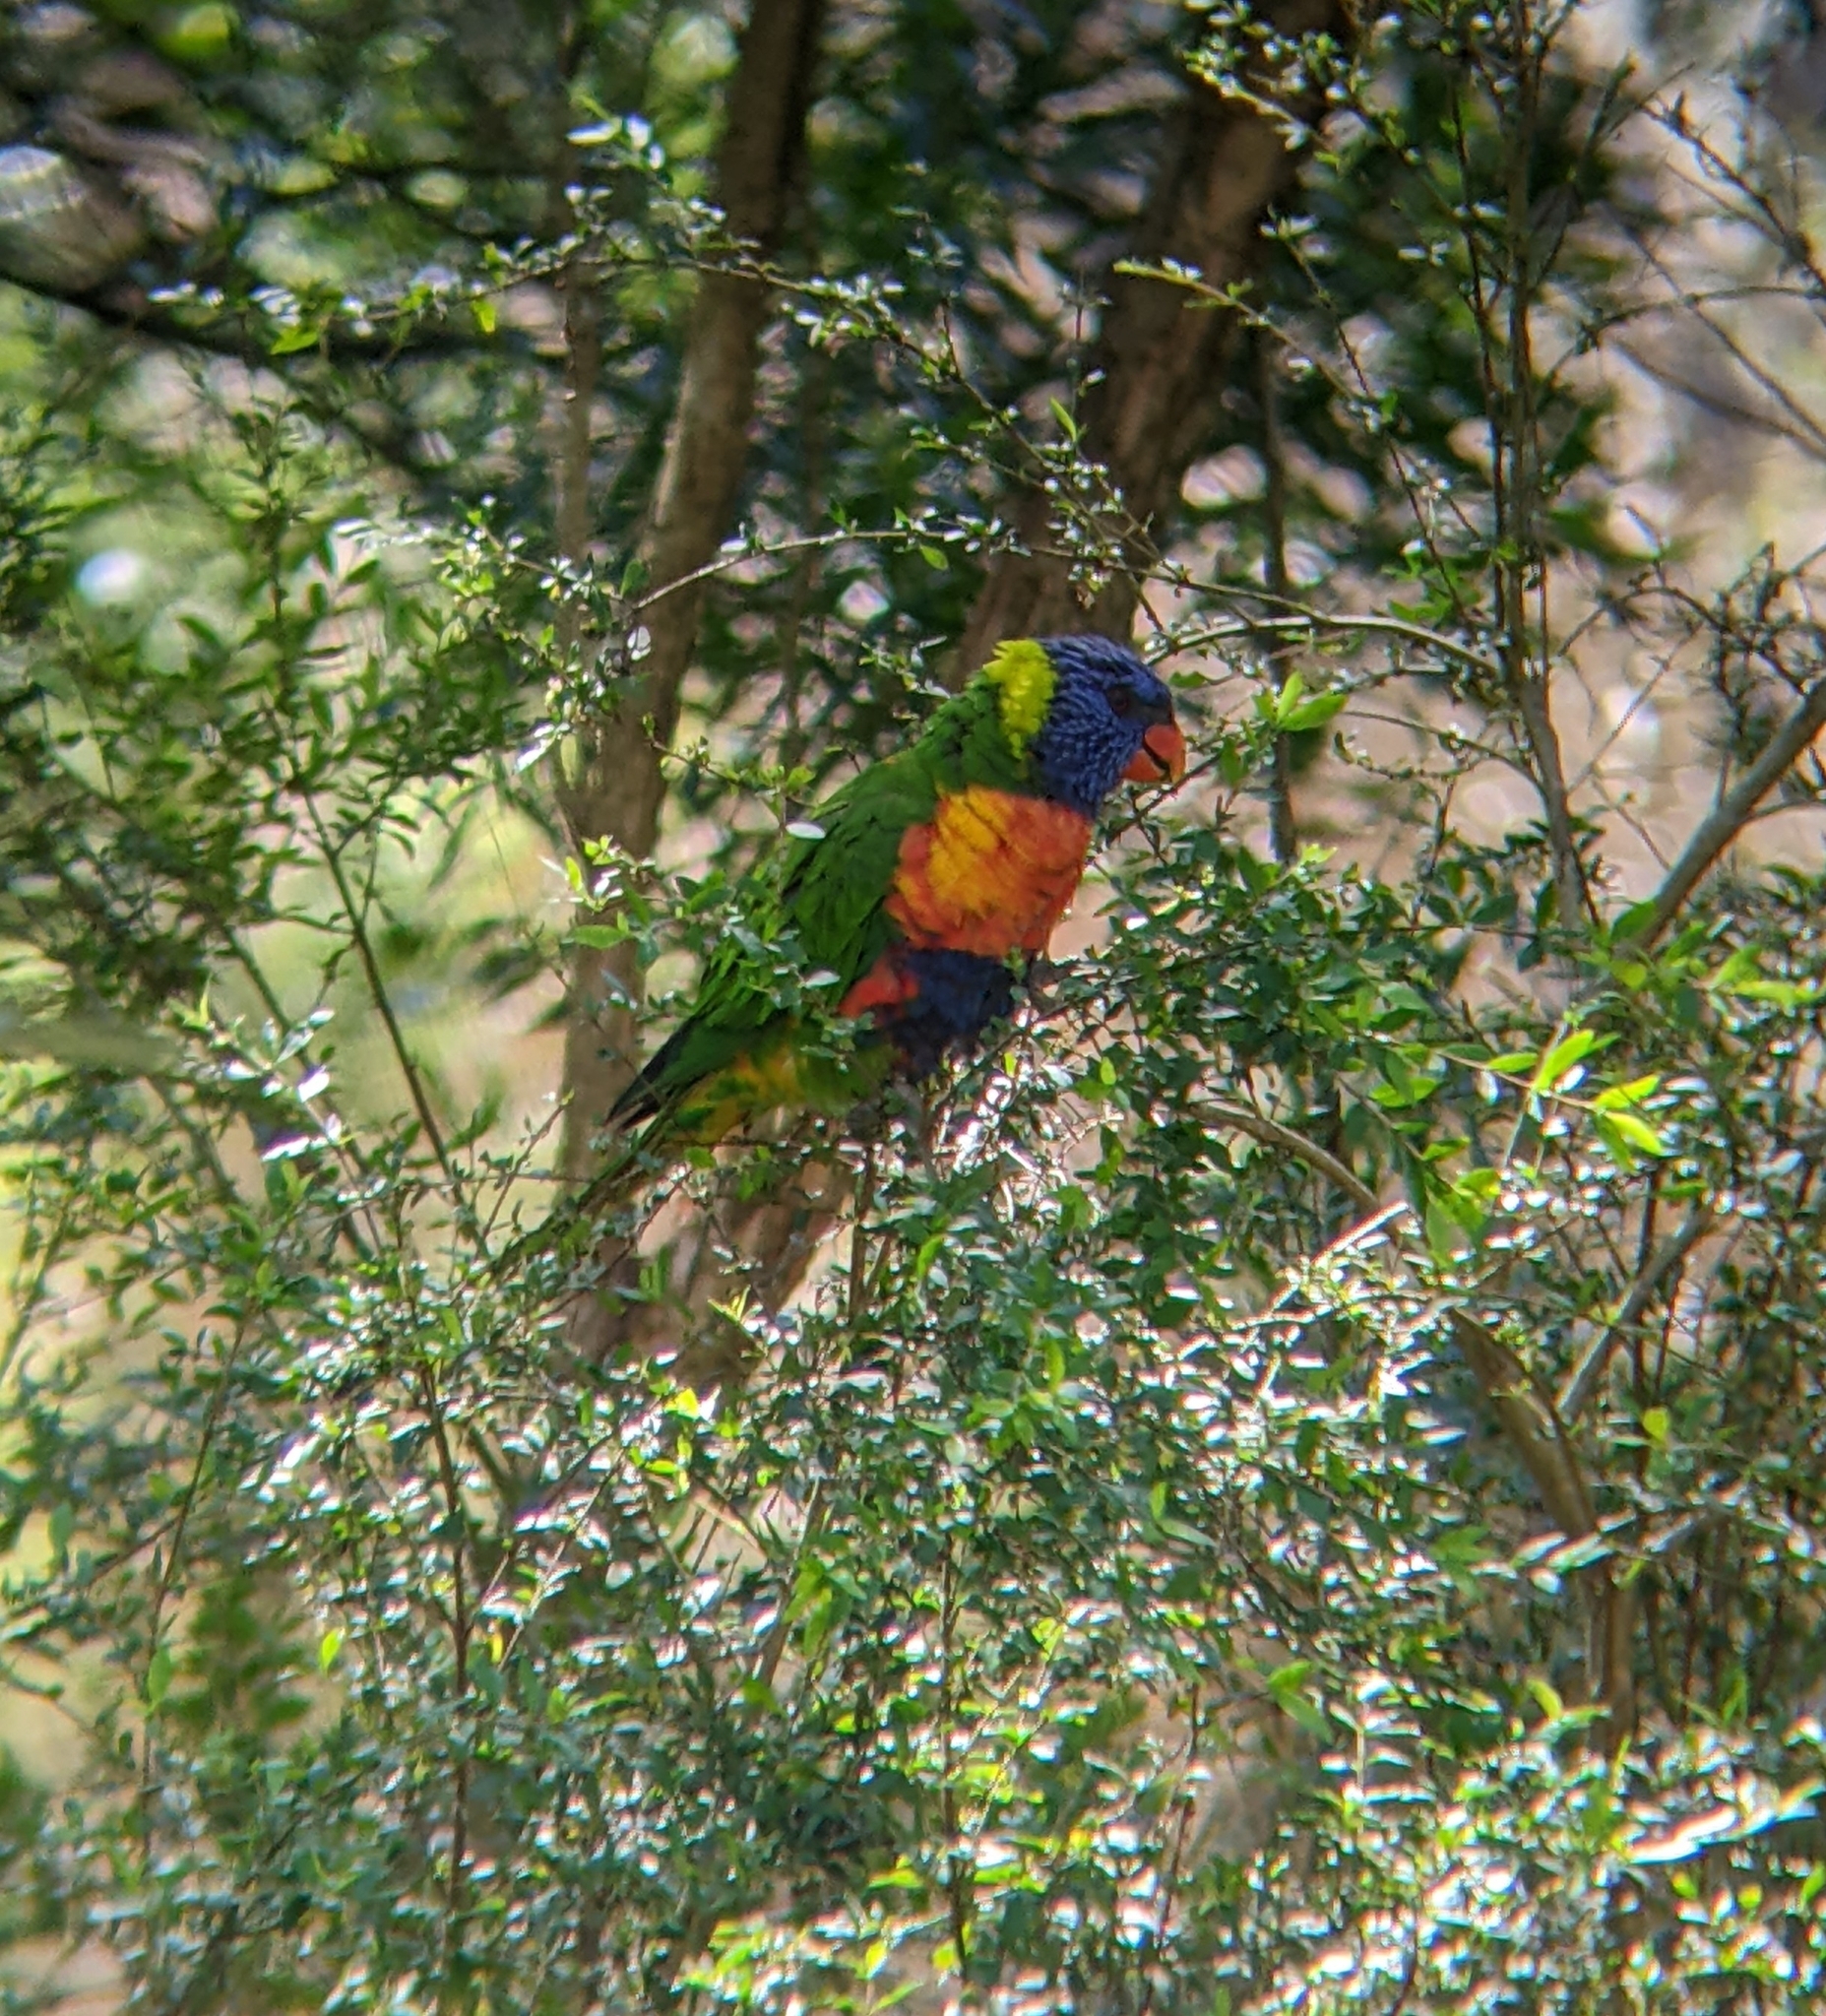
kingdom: Animalia
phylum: Chordata
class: Aves
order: Psittaciformes
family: Psittacidae
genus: Trichoglossus
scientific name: Trichoglossus haematodus
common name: Coconut lorikeet
